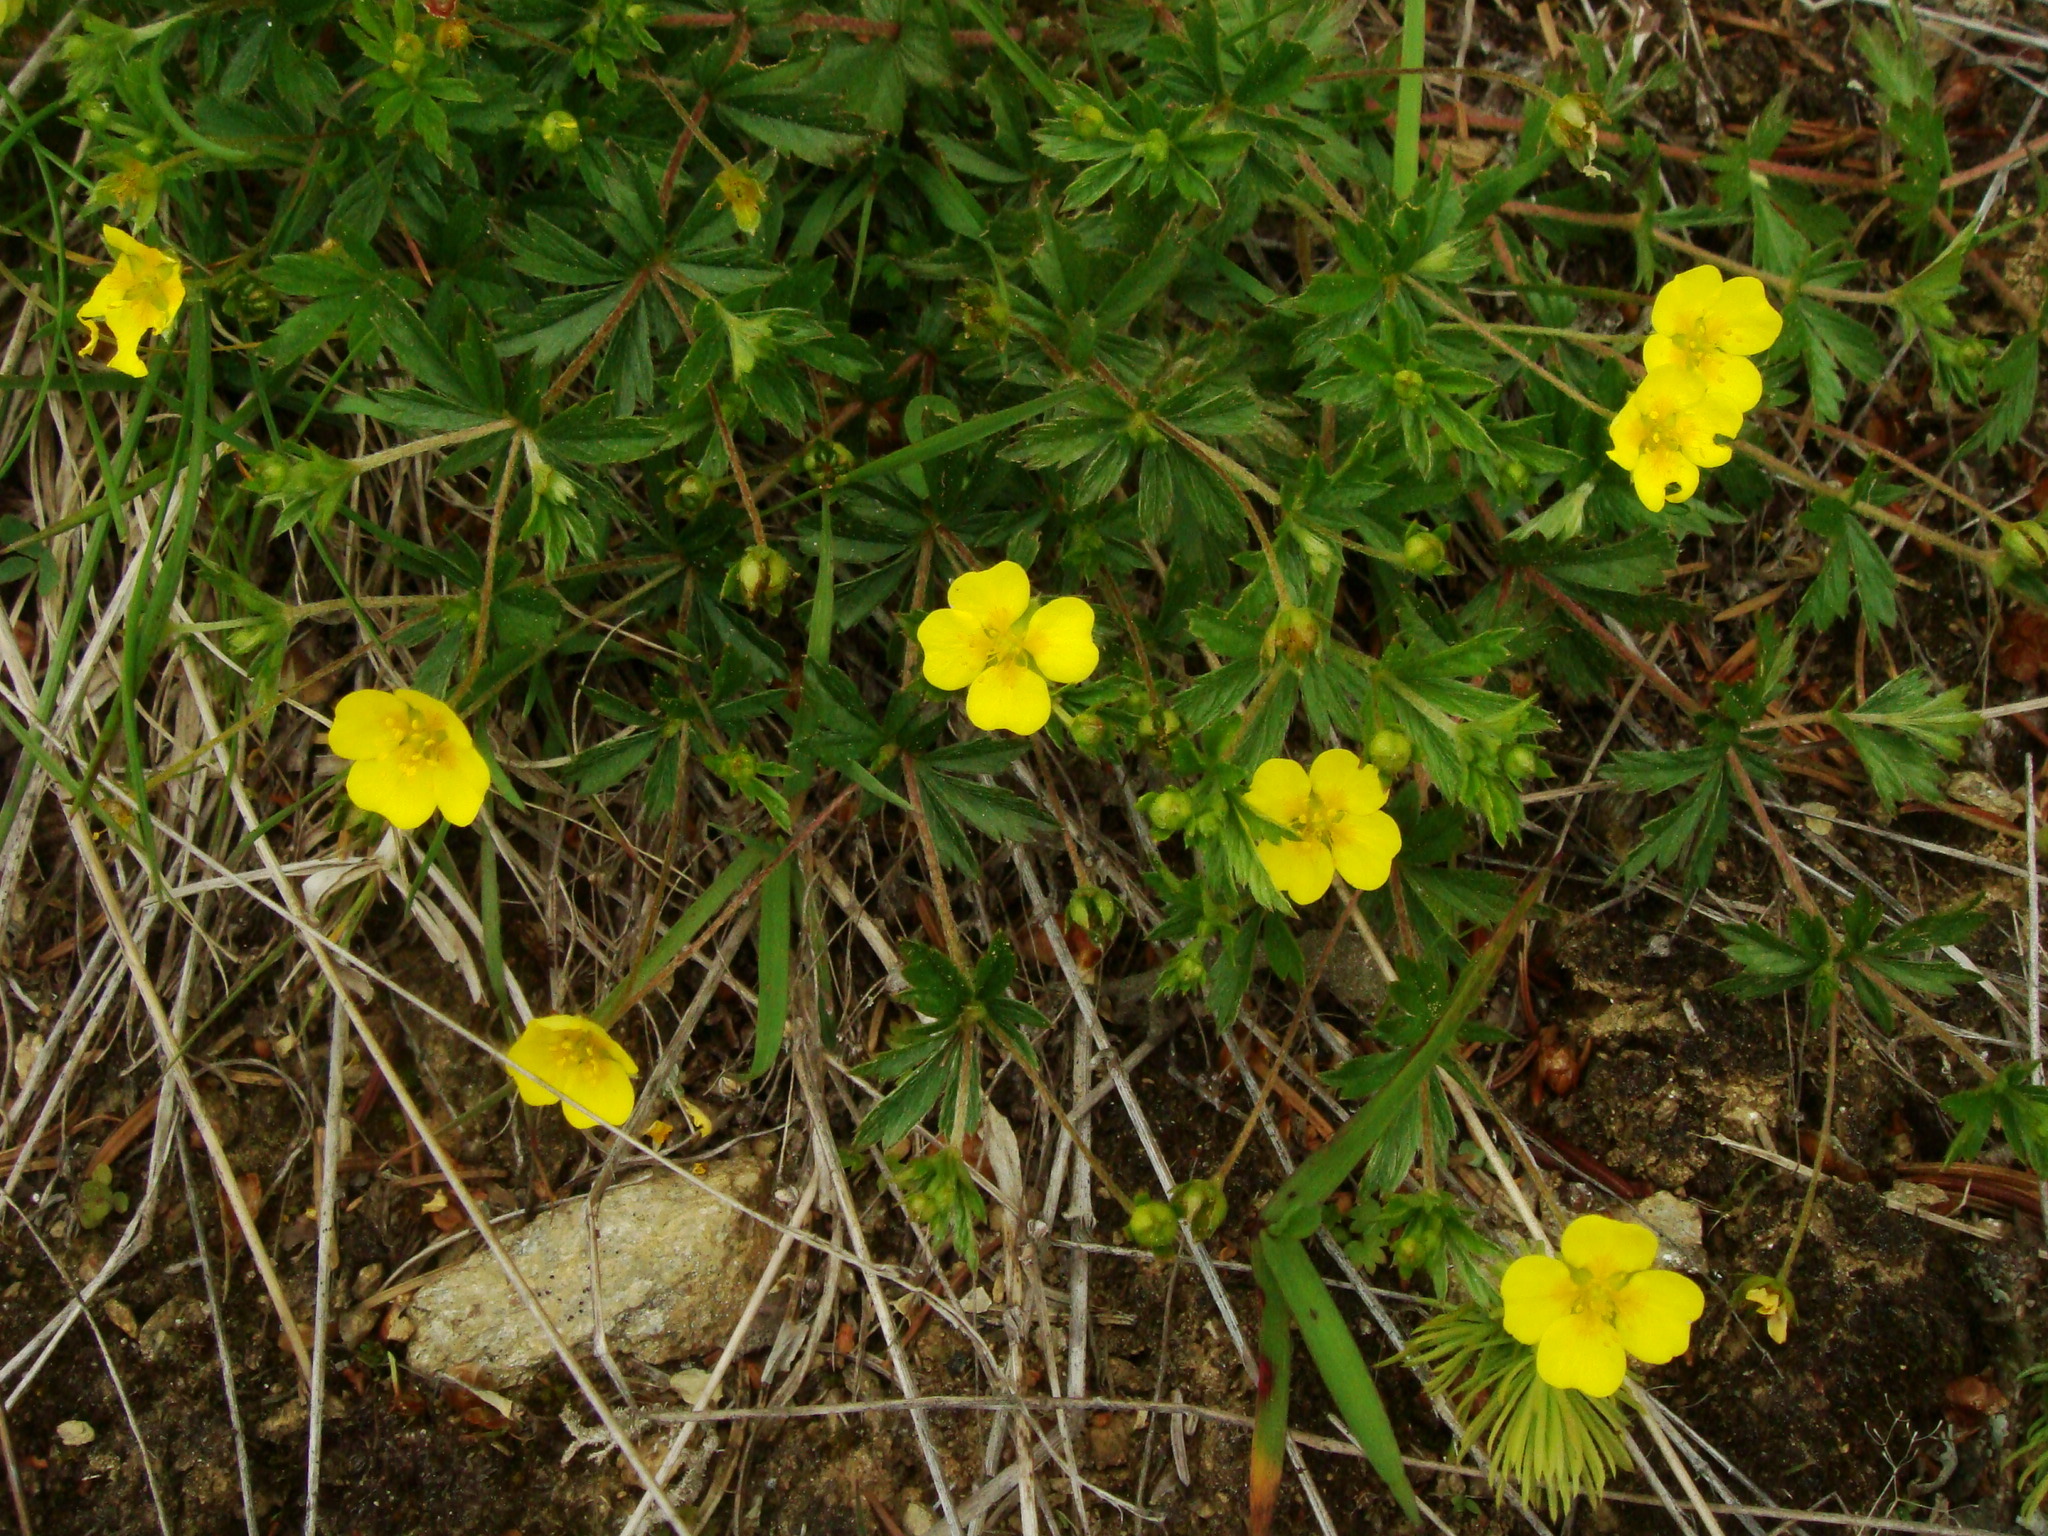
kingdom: Plantae
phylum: Tracheophyta
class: Magnoliopsida
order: Rosales
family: Rosaceae
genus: Potentilla
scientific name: Potentilla erecta
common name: Tormentil
